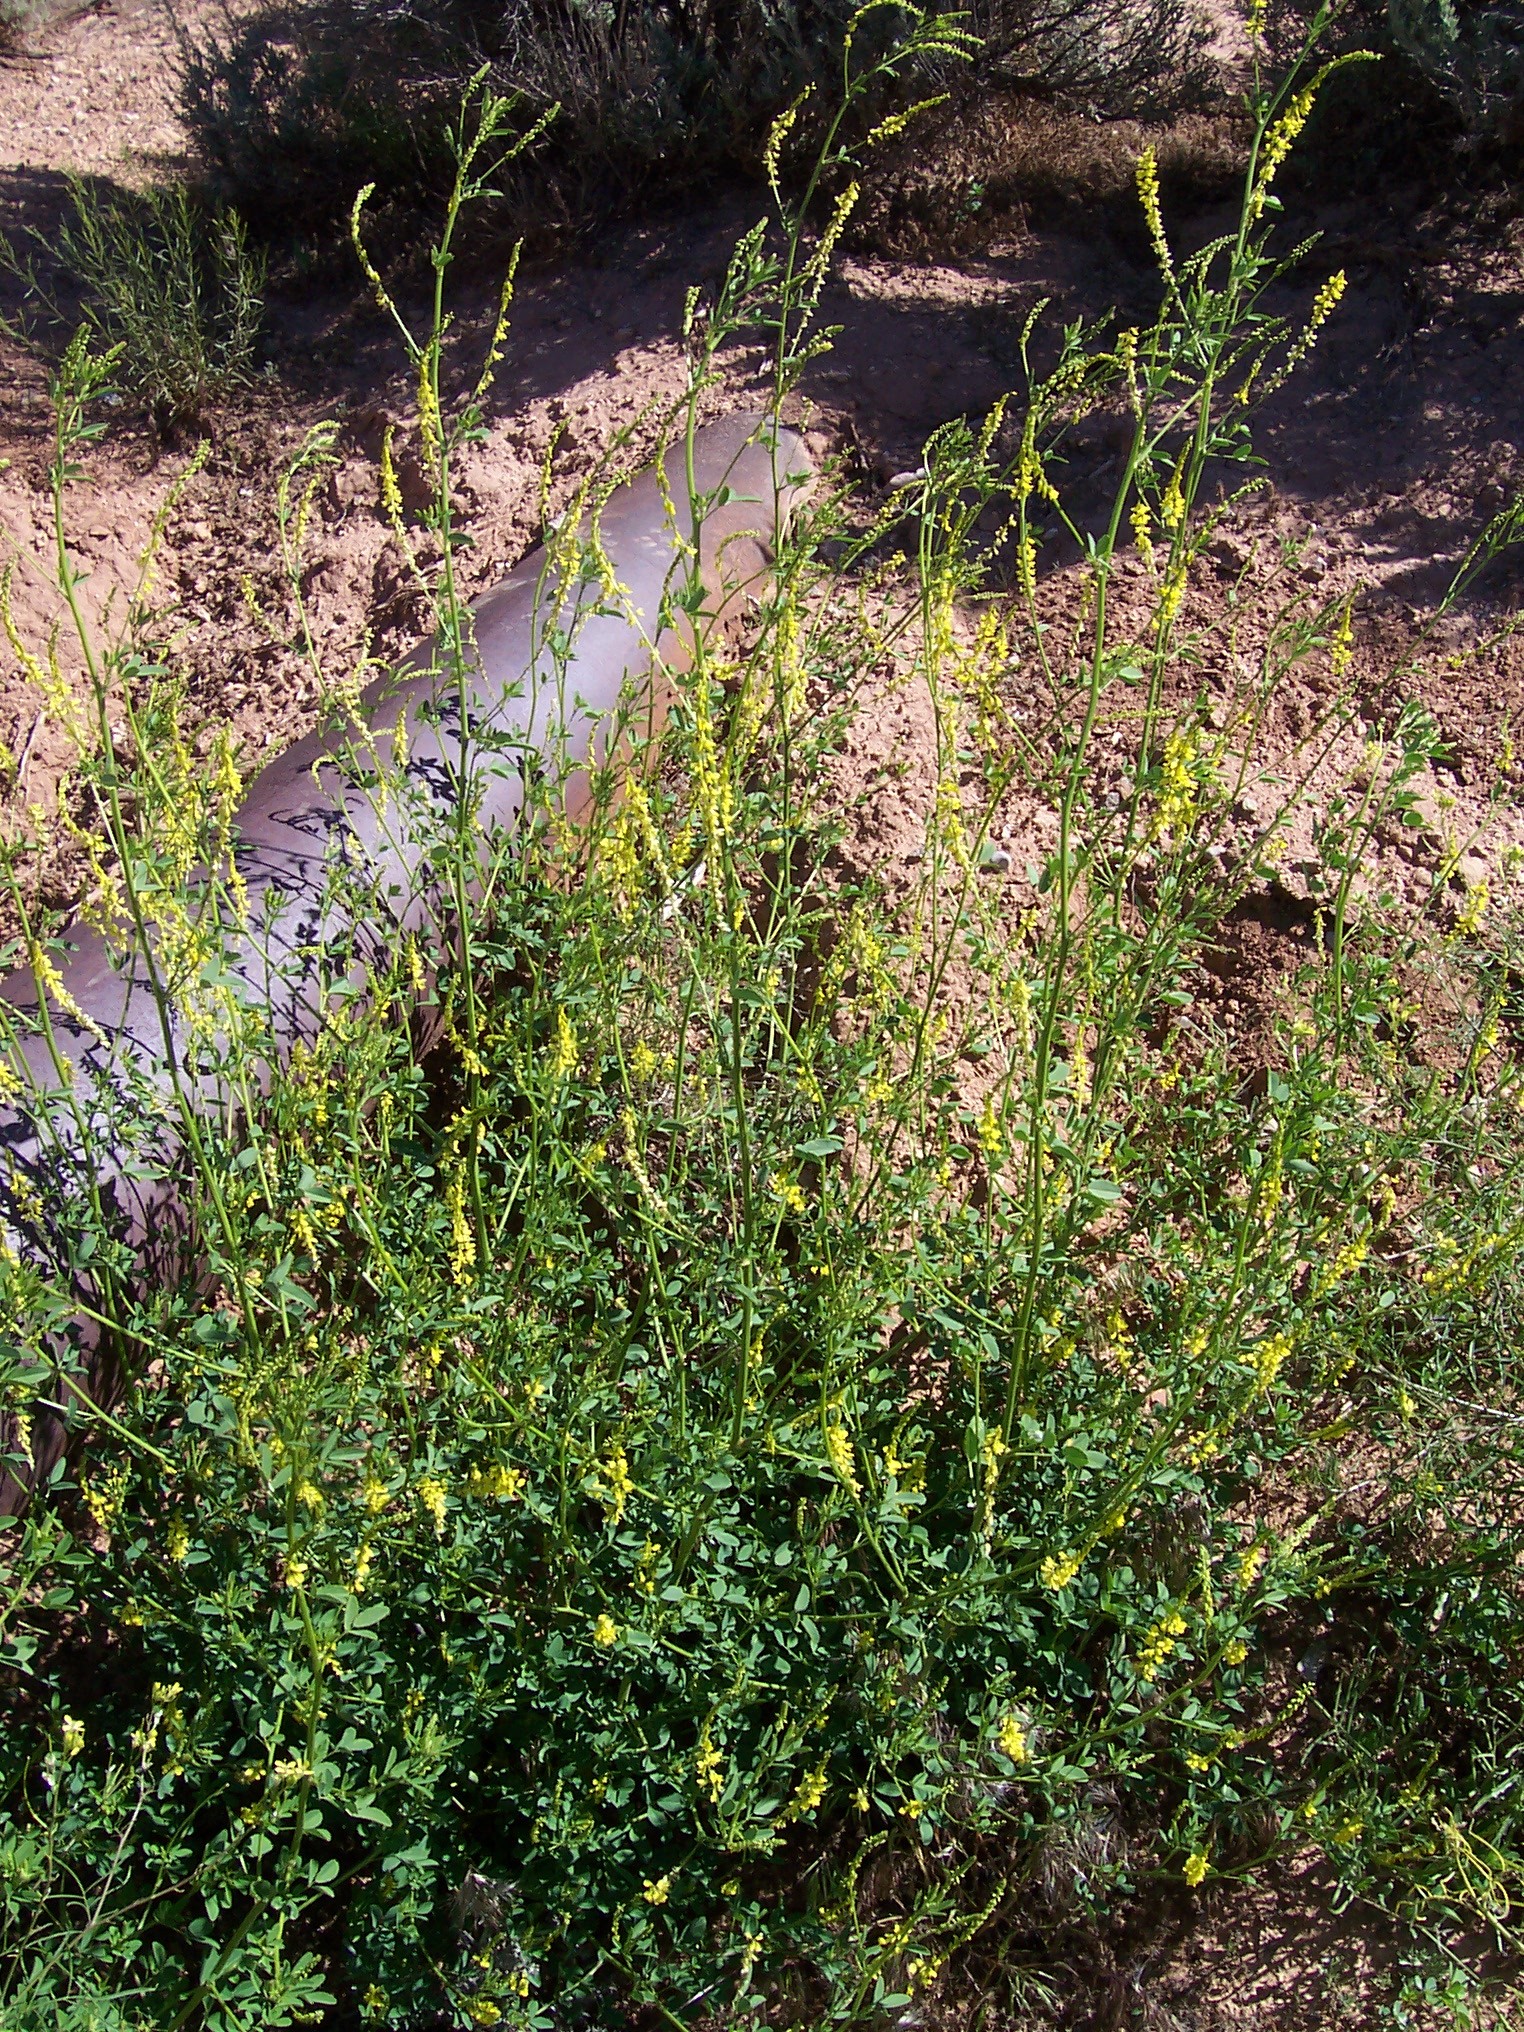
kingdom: Plantae
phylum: Tracheophyta
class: Magnoliopsida
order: Fabales
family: Fabaceae
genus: Melilotus
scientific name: Melilotus officinalis
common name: Sweetclover
